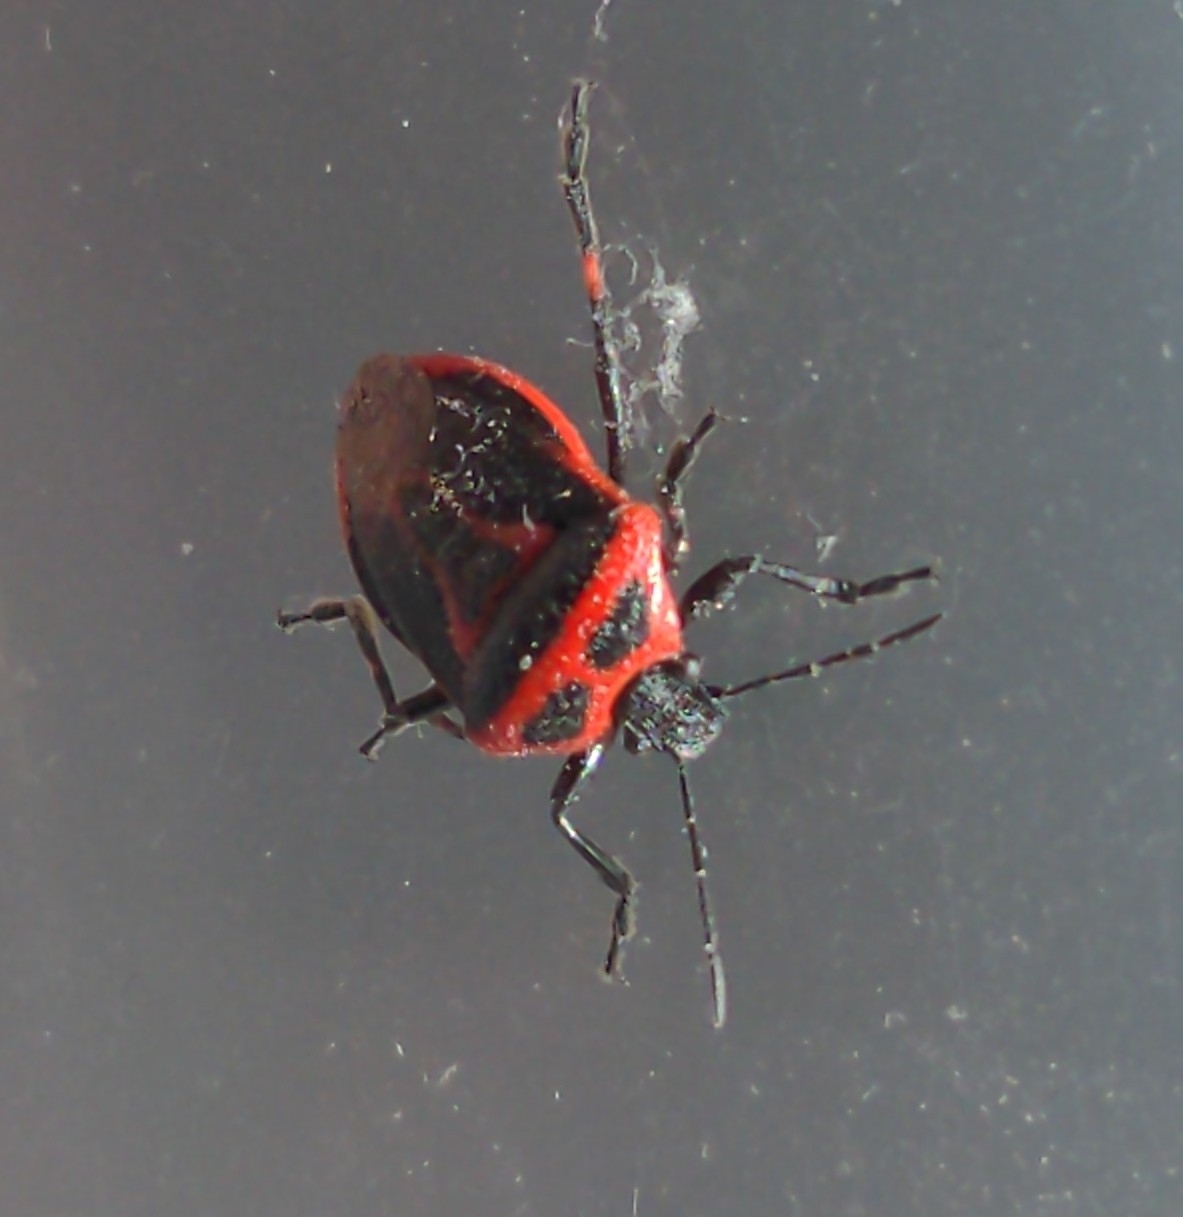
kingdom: Animalia
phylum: Arthropoda
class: Insecta
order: Hemiptera
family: Pentatomidae
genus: Perillus
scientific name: Perillus bioculatus
